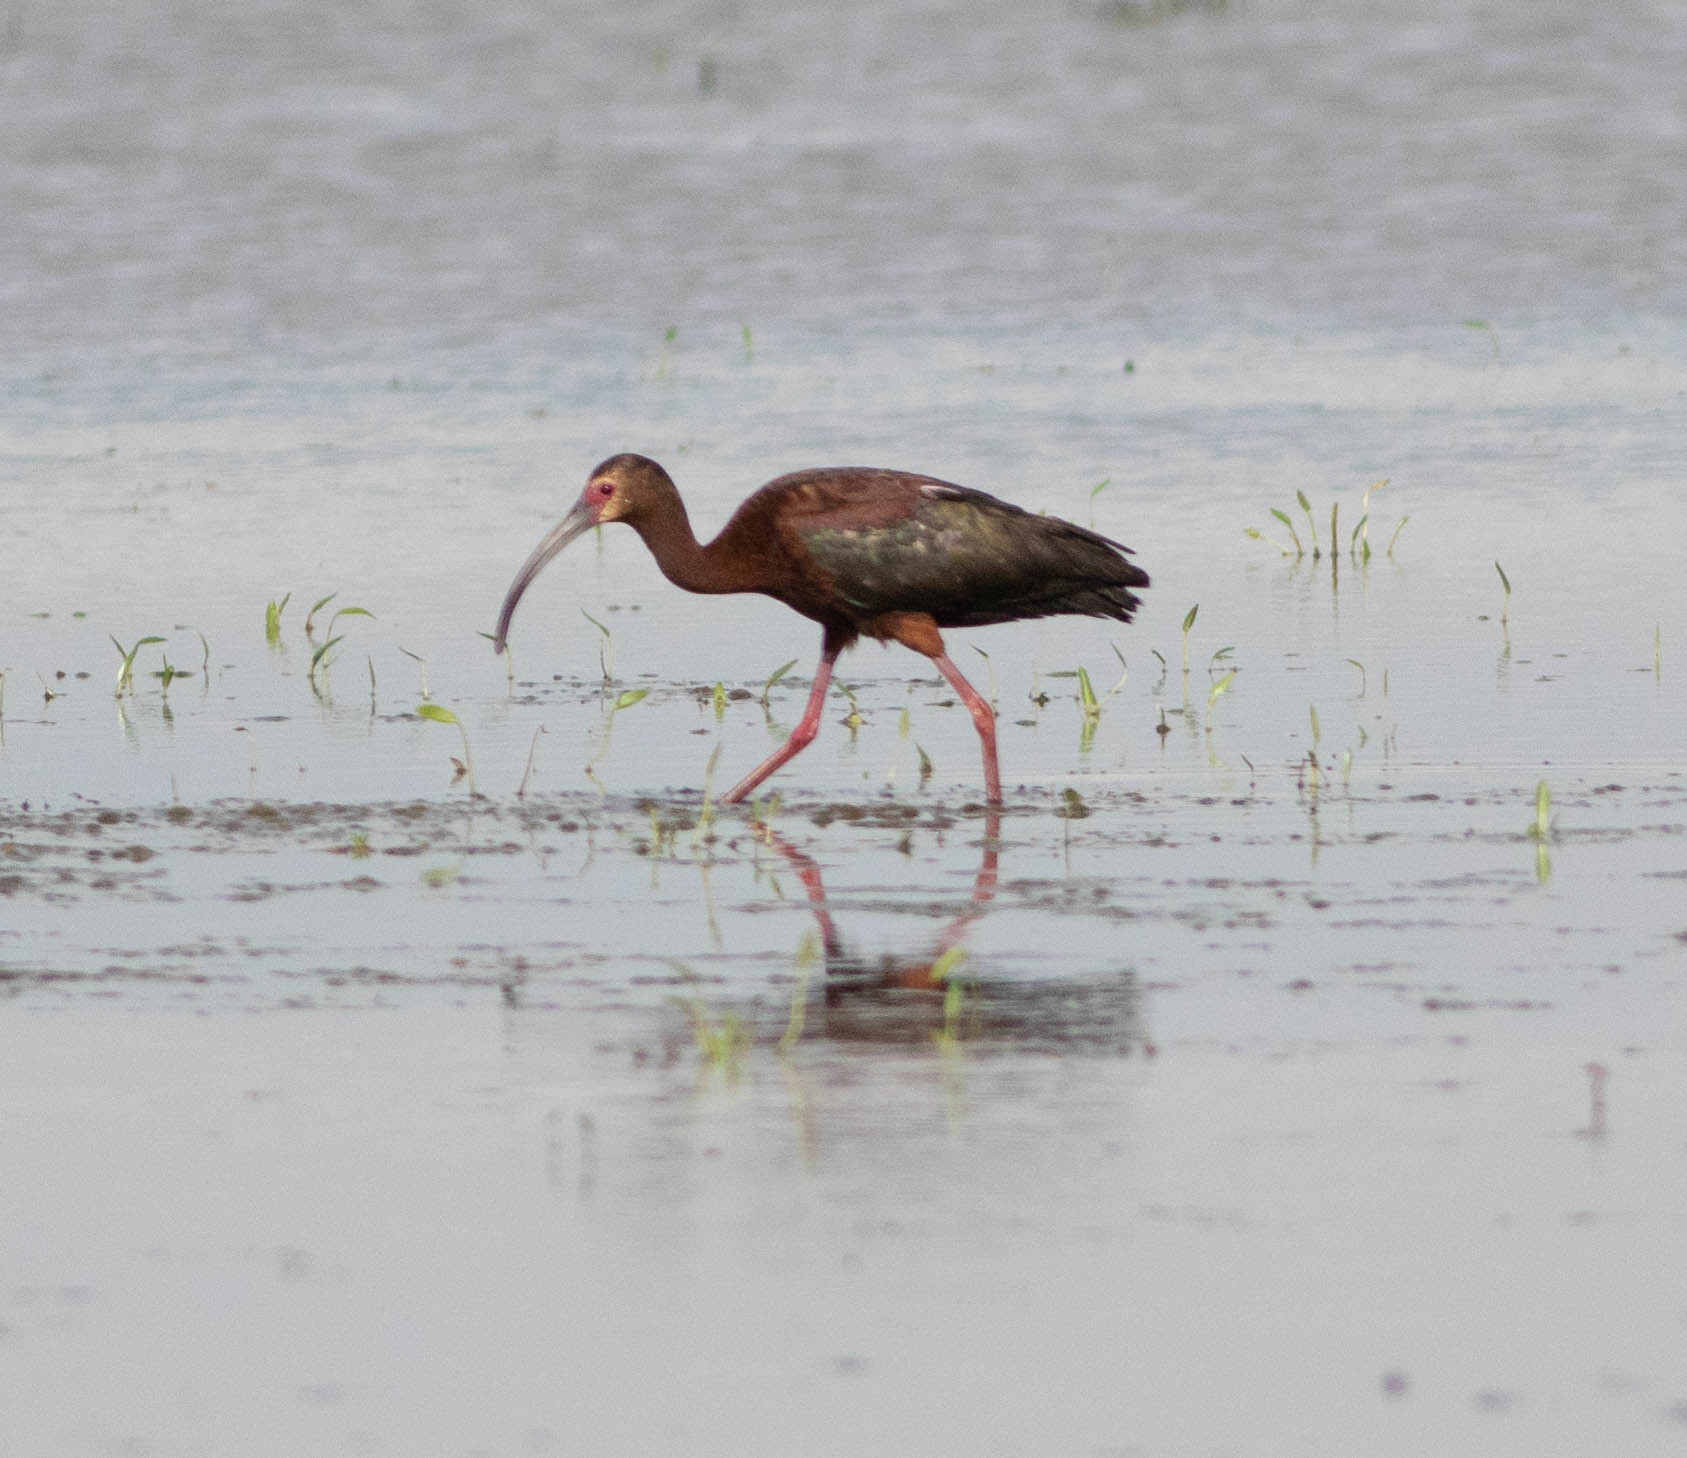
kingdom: Animalia
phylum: Chordata
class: Aves
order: Pelecaniformes
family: Threskiornithidae
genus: Plegadis
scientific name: Plegadis chihi
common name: White-faced ibis
